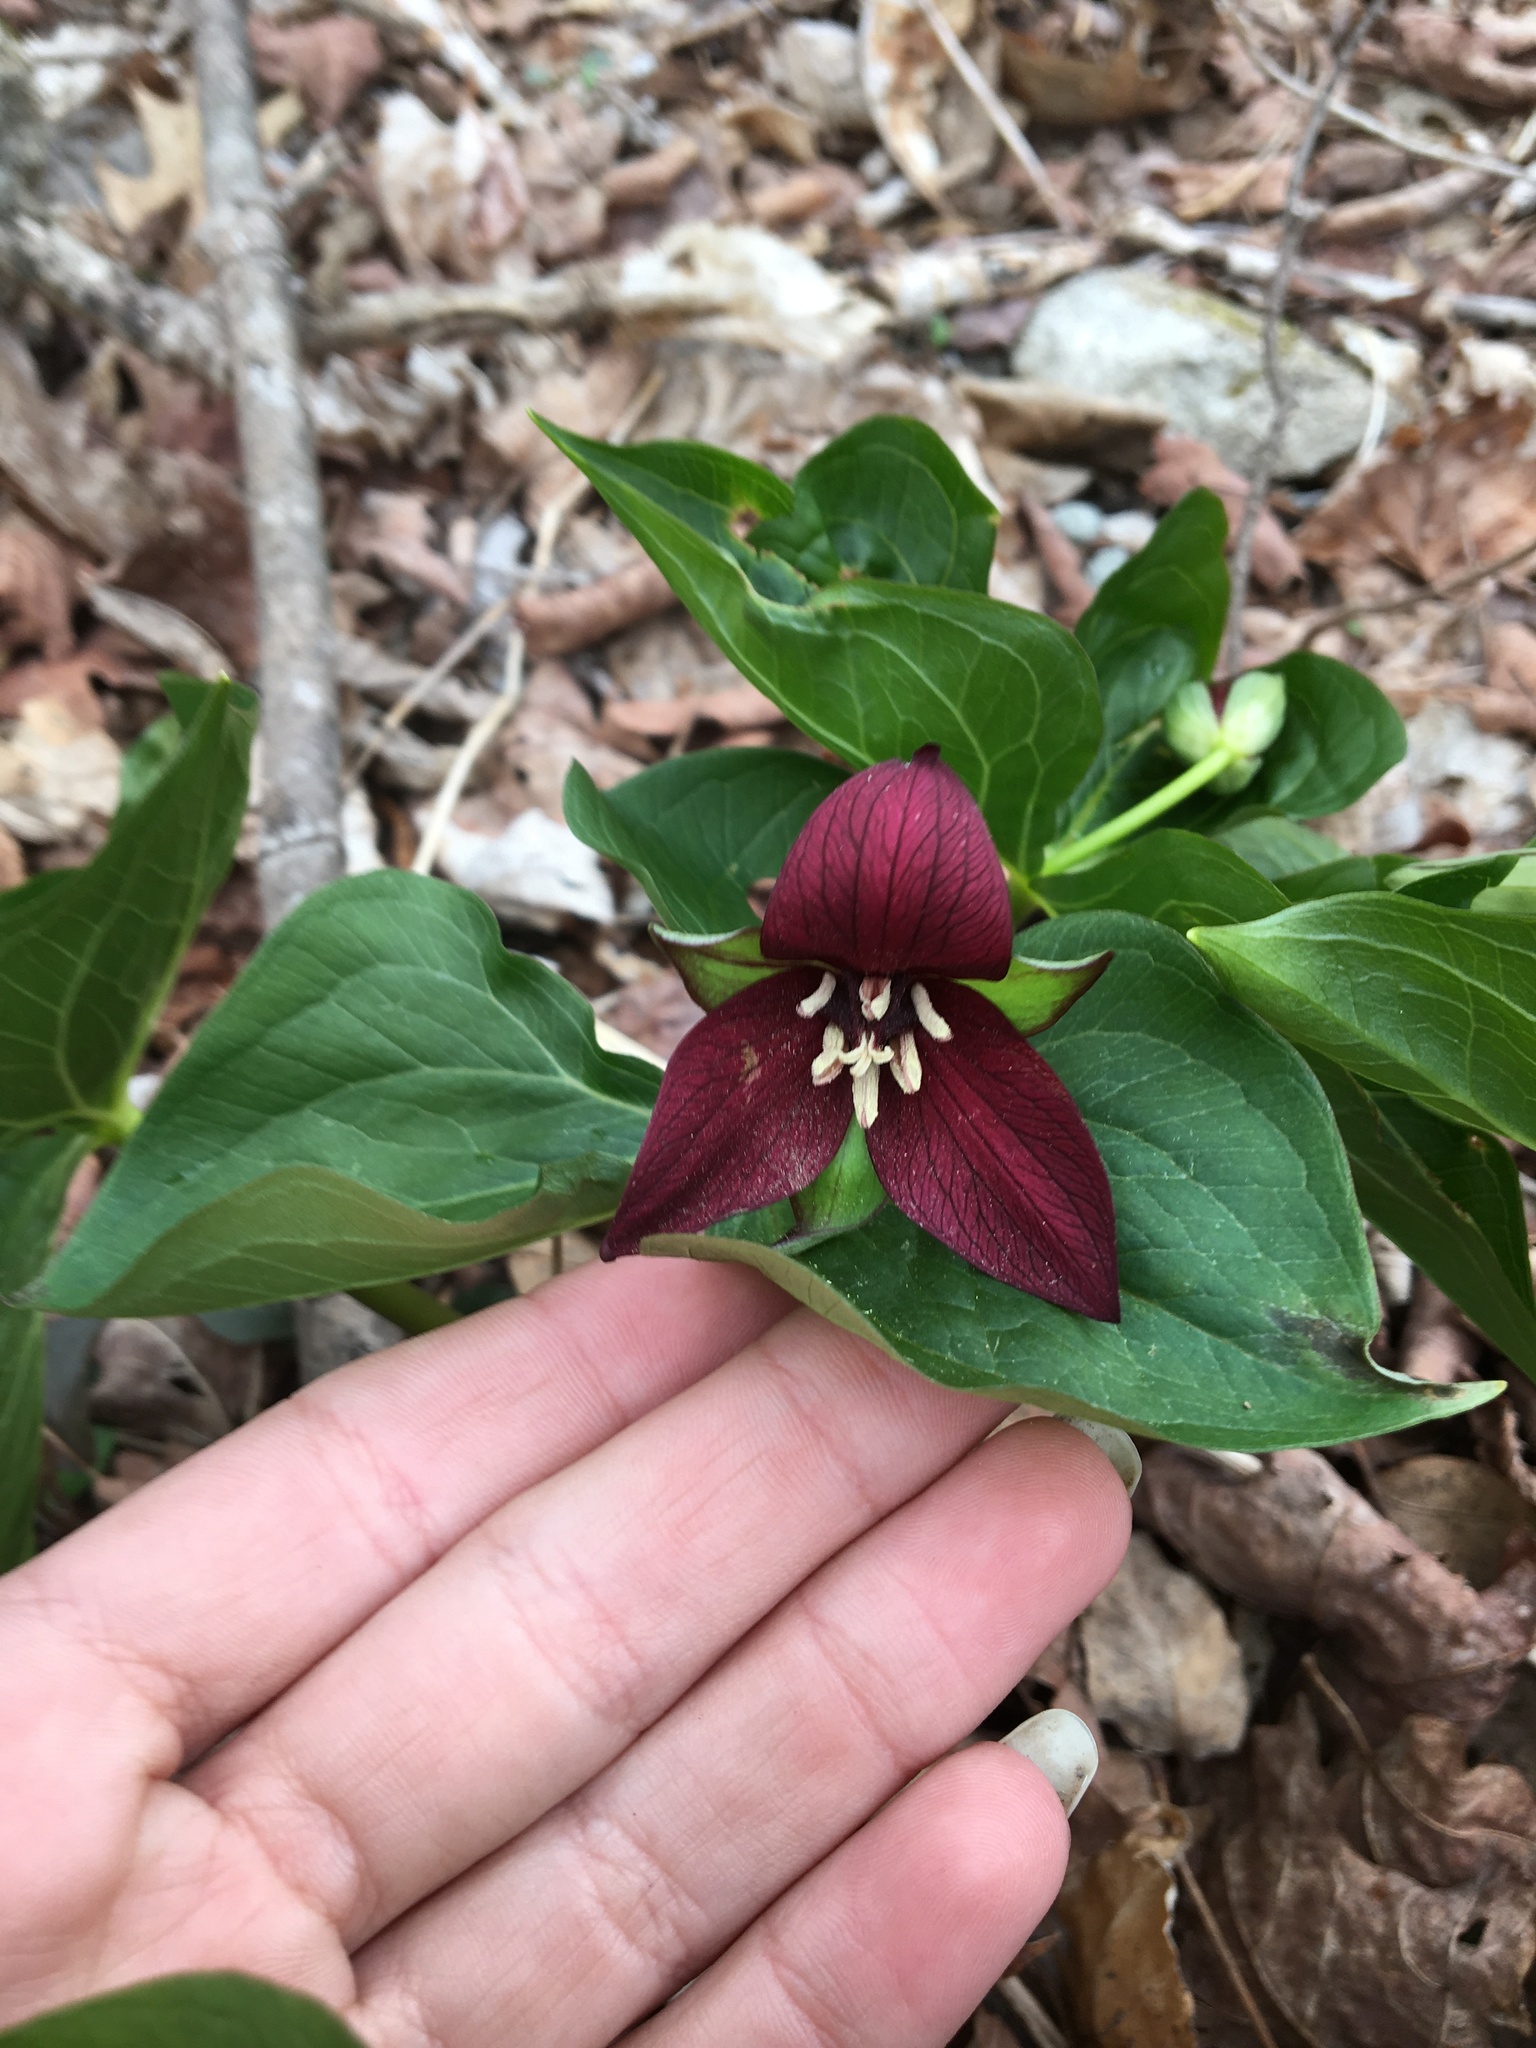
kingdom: Plantae
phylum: Tracheophyta
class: Liliopsida
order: Liliales
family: Melanthiaceae
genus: Trillium
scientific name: Trillium erectum
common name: Purple trillium
